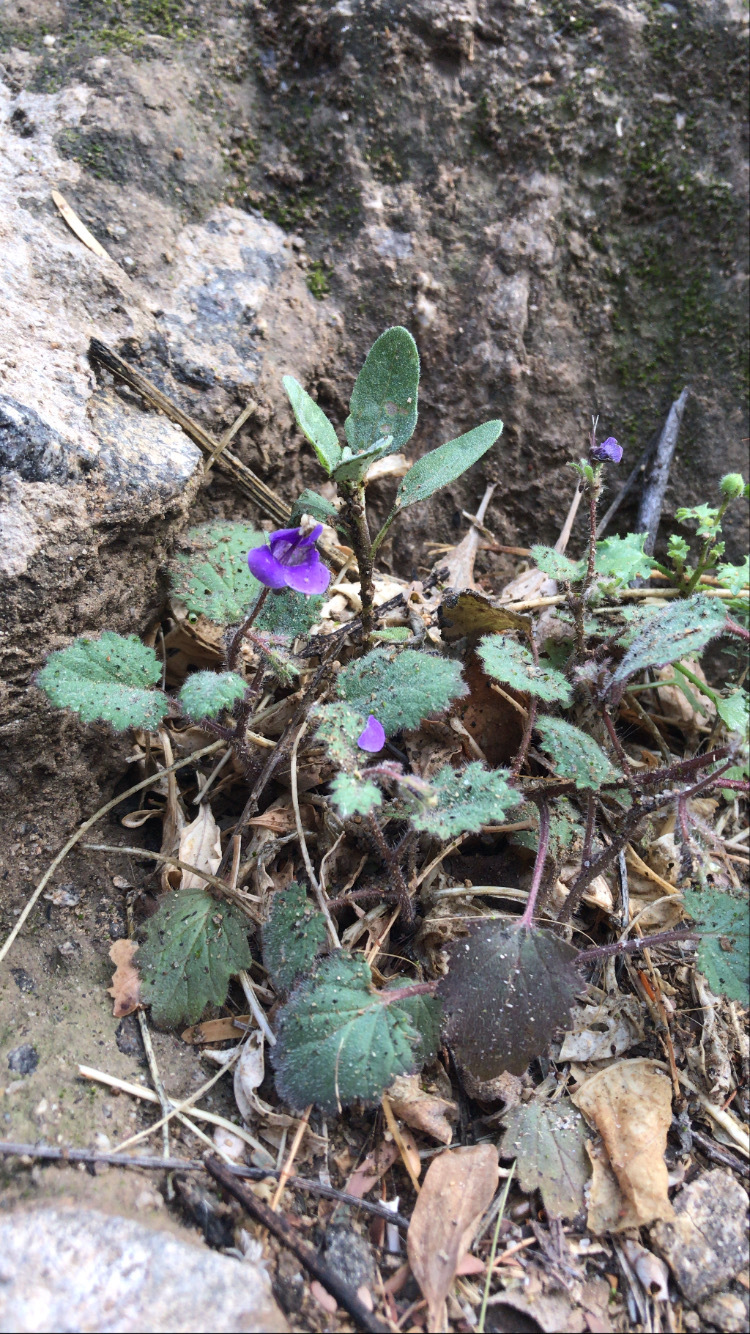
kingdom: Plantae
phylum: Tracheophyta
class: Magnoliopsida
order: Boraginales
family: Hydrophyllaceae
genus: Phacelia
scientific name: Phacelia minor
